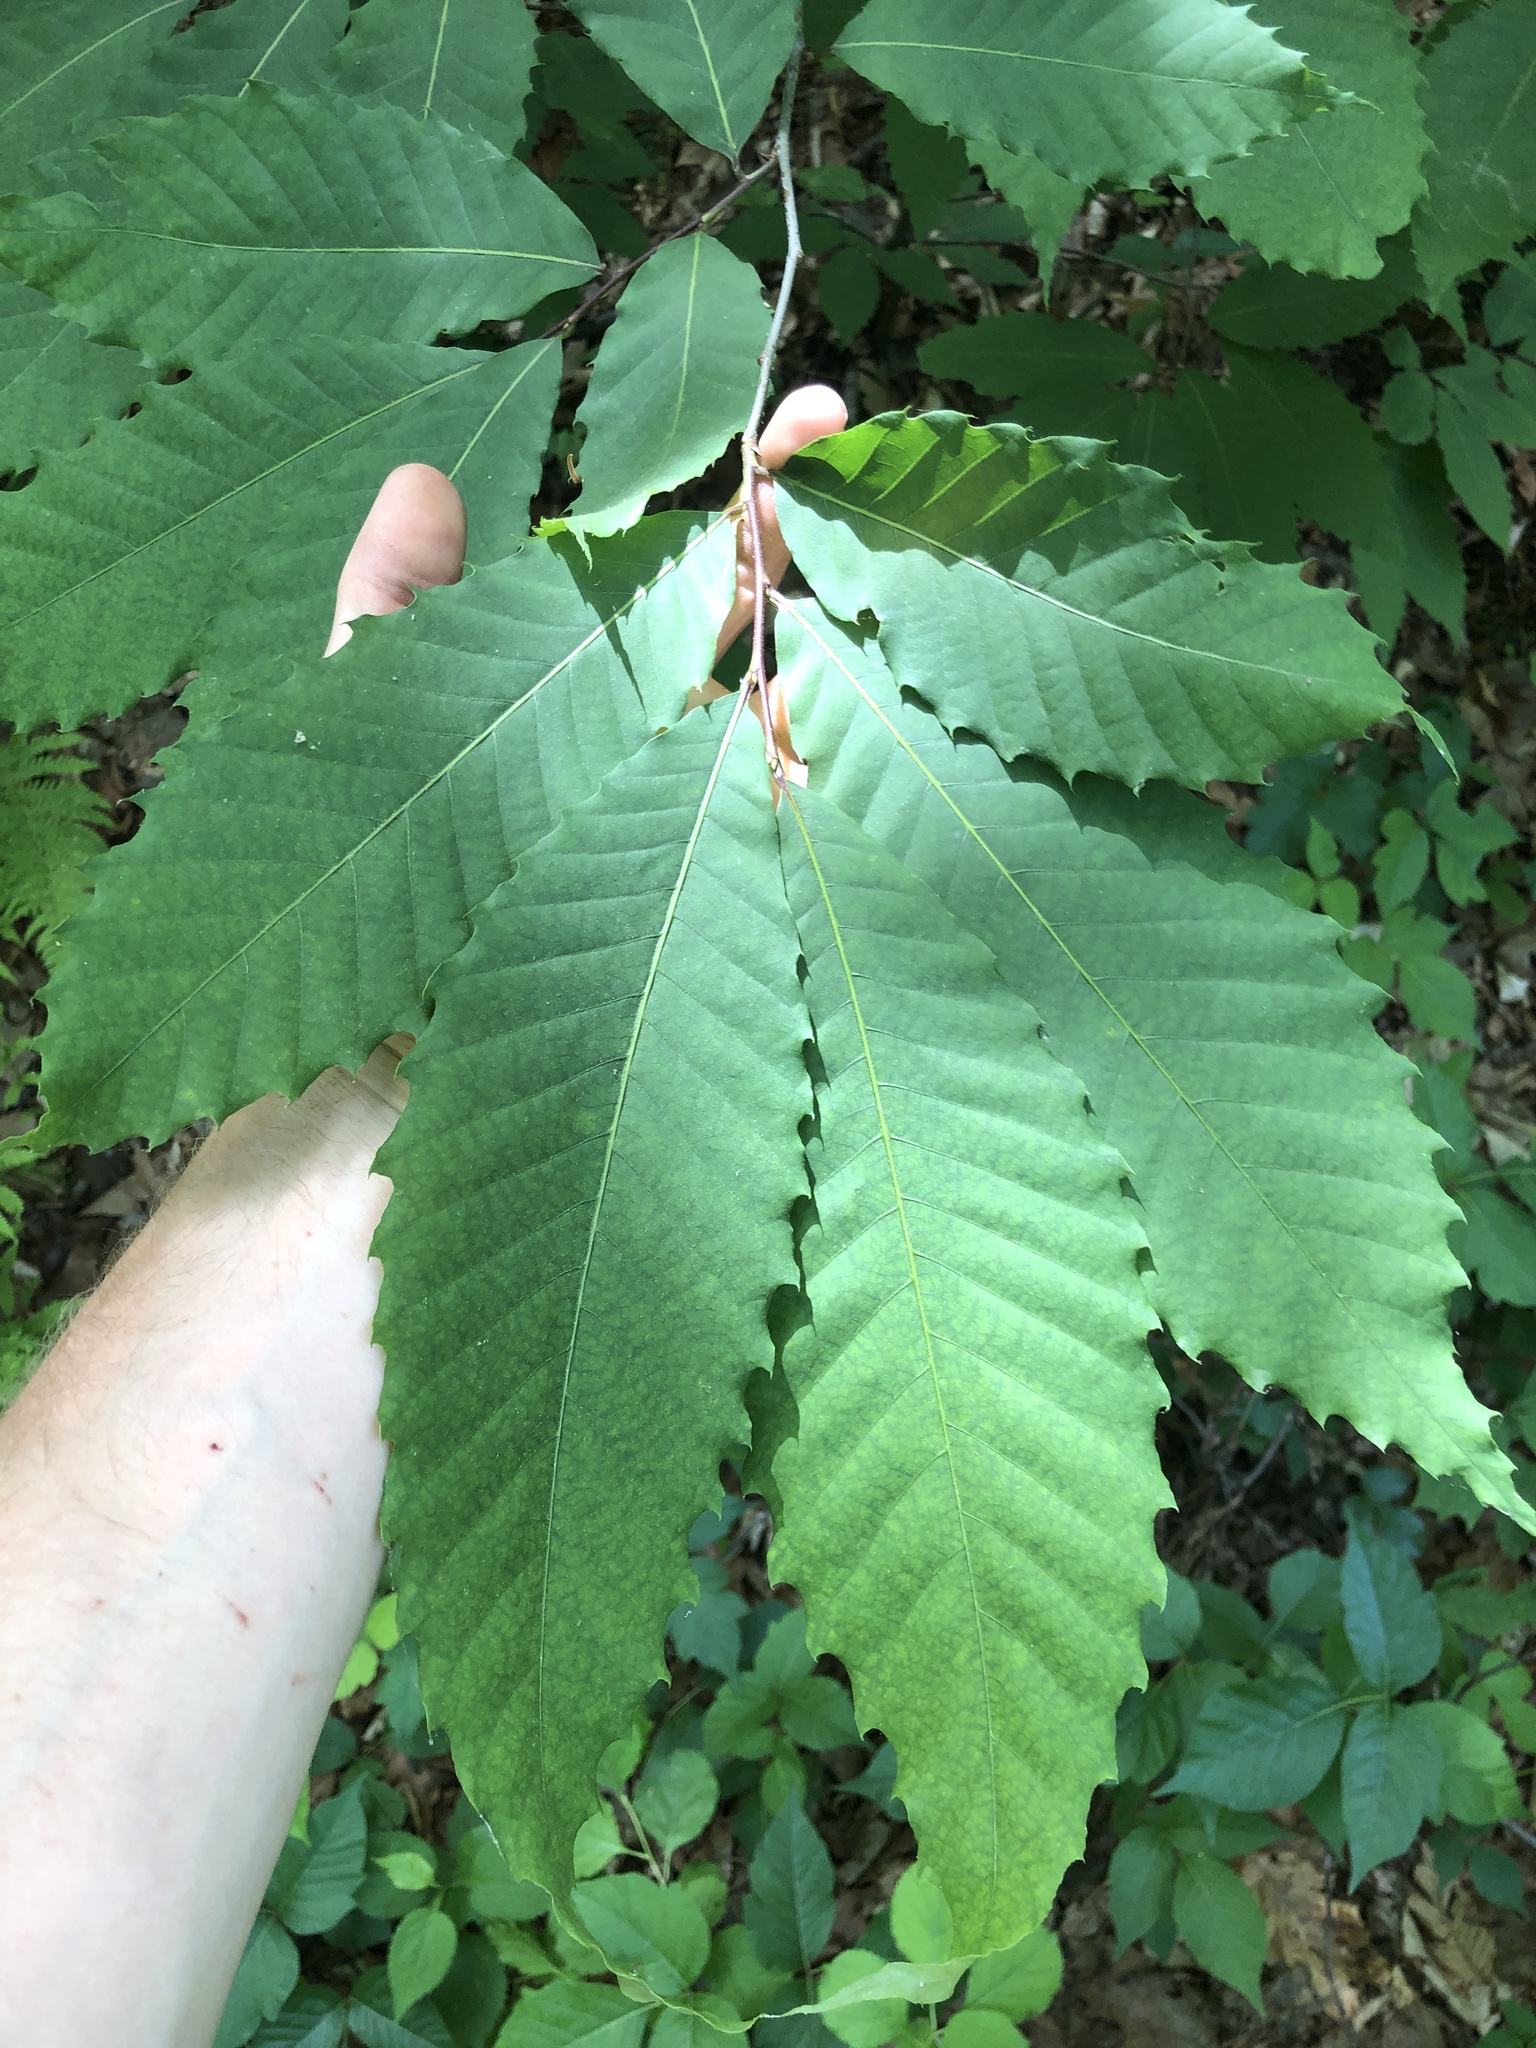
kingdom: Plantae
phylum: Tracheophyta
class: Magnoliopsida
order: Fagales
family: Fagaceae
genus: Castanea
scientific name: Castanea dentata
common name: American chestnut
